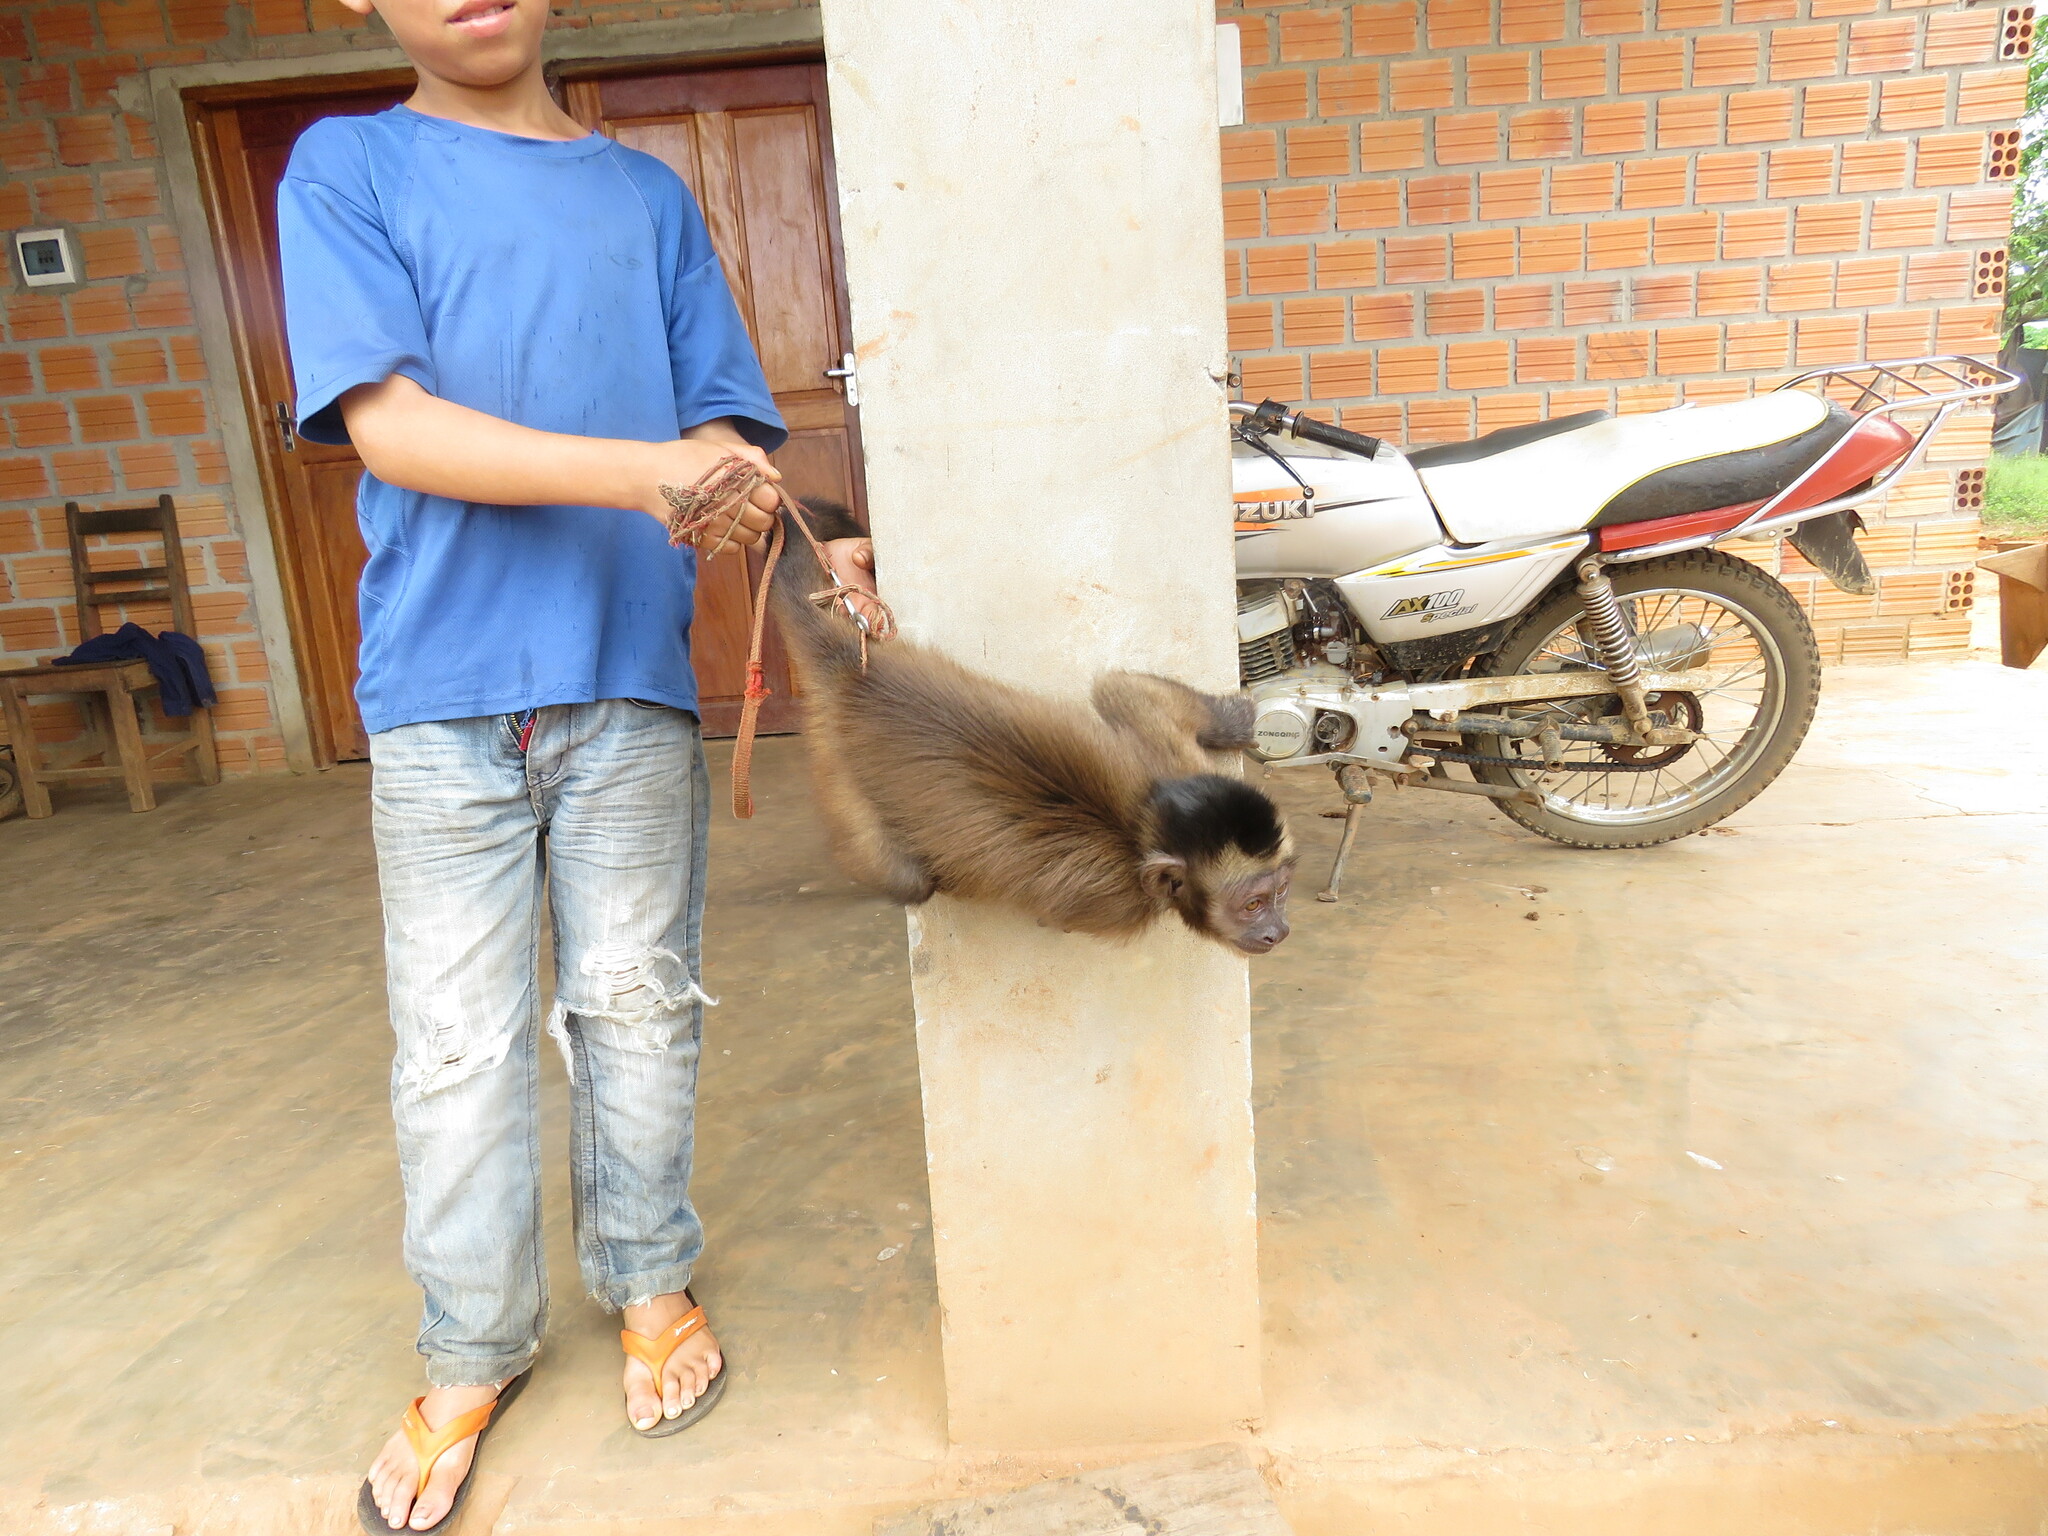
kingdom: Animalia
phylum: Chordata
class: Mammalia
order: Primates
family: Cebidae
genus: Sapajus
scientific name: Sapajus apella
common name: Tufted capuchin
